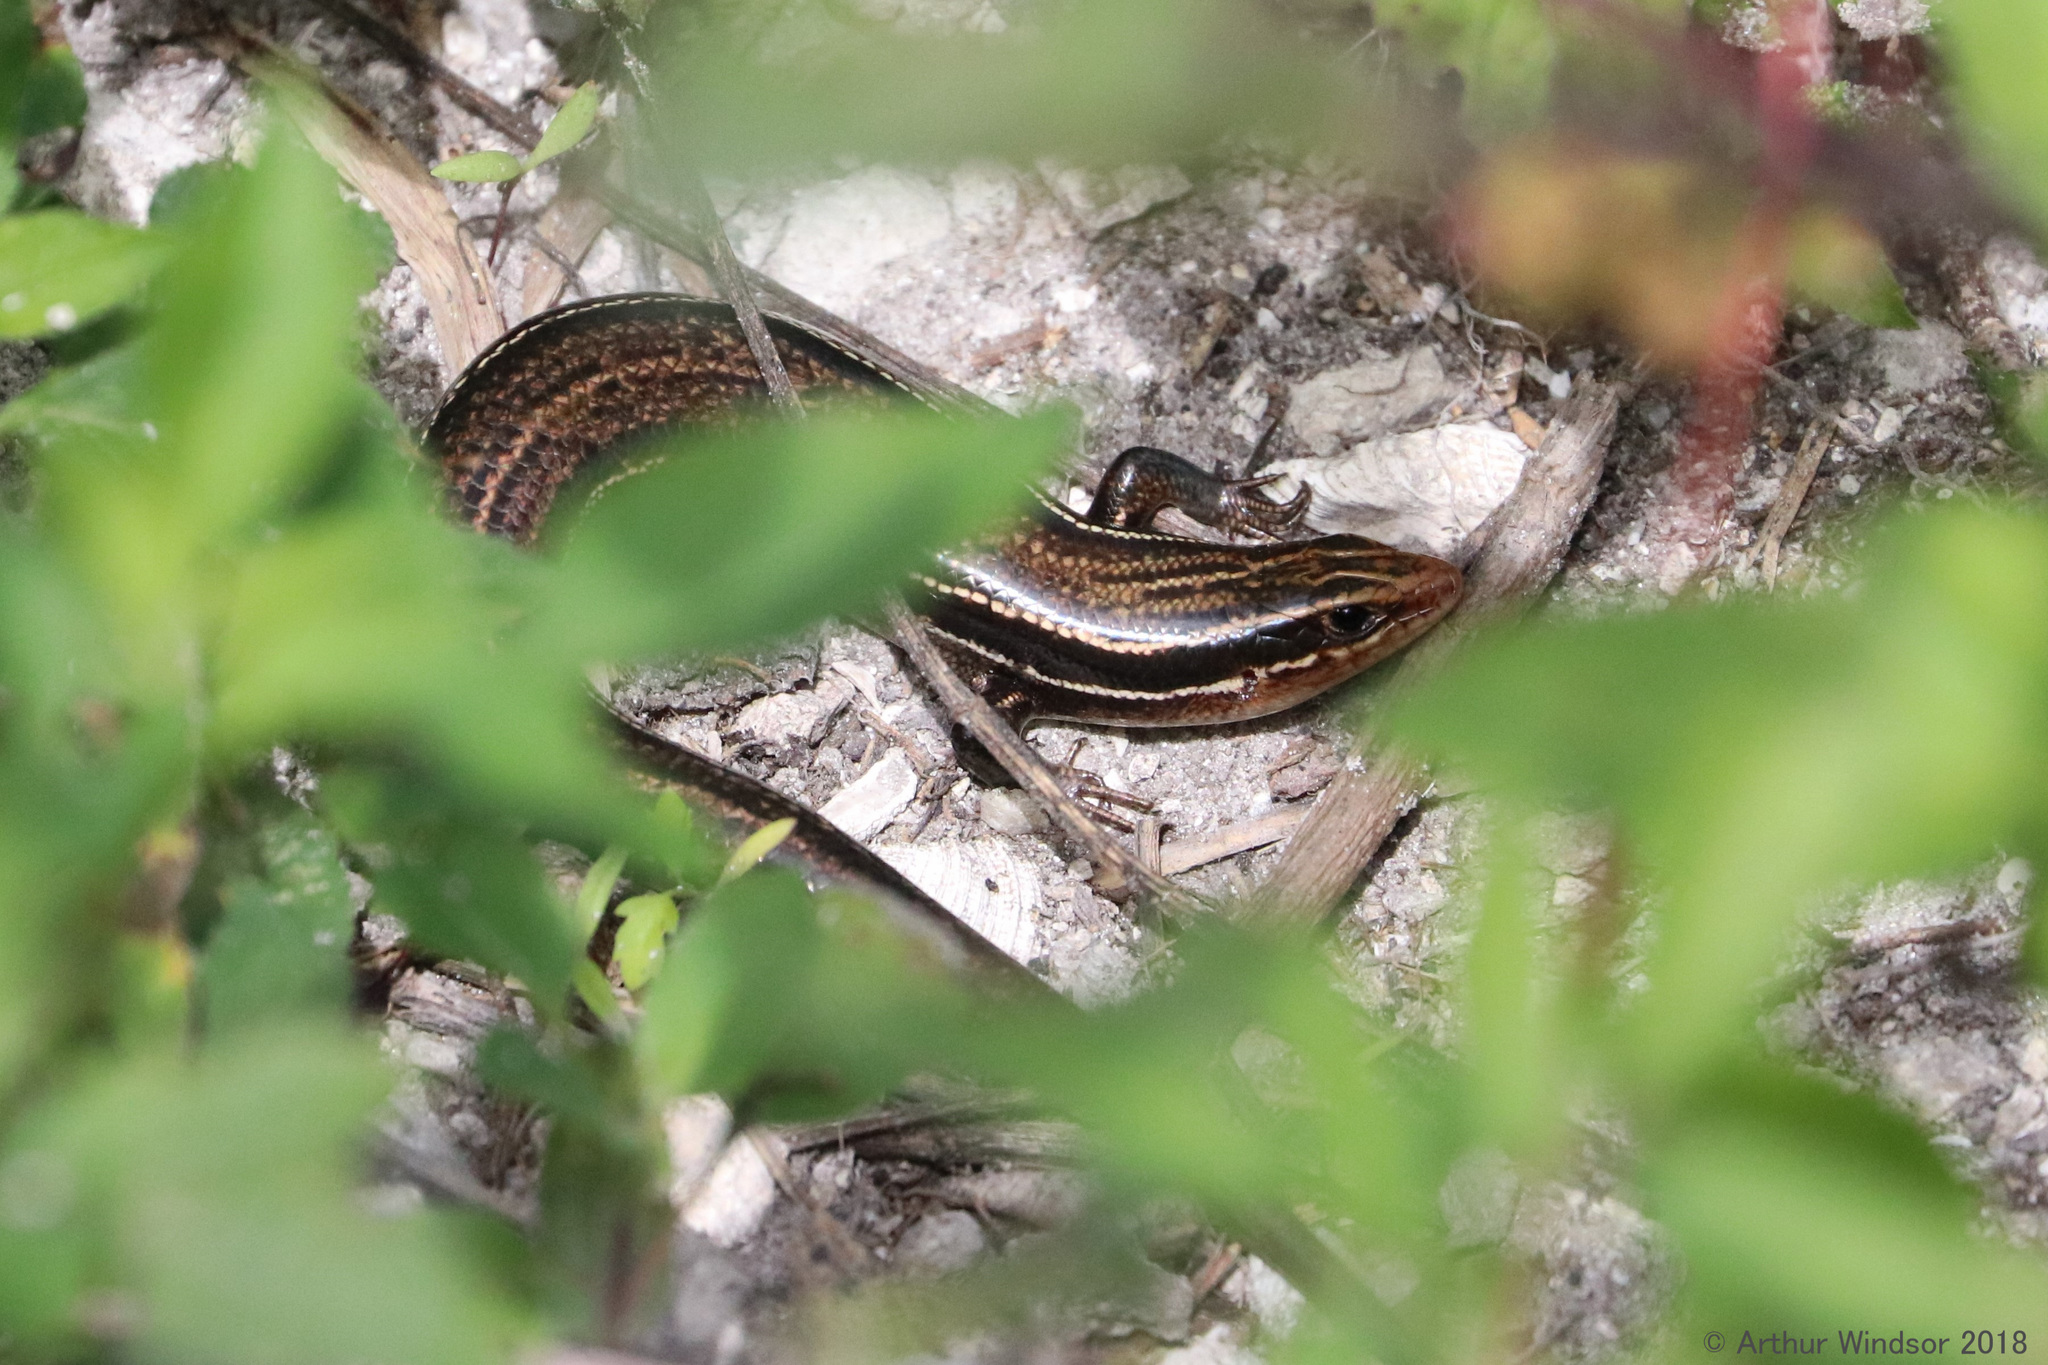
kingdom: Animalia
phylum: Chordata
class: Squamata
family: Scincidae
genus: Plestiodon
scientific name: Plestiodon inexpectatus
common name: Southeastern five-lined skink
